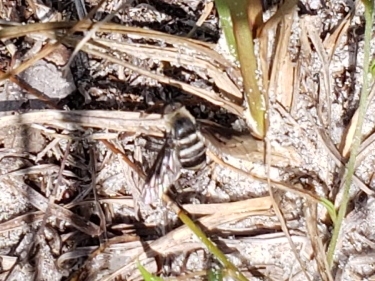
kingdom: Animalia
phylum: Arthropoda
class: Insecta
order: Diptera
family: Bombyliidae
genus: Chrysanthrax
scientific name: Chrysanthrax dispar
